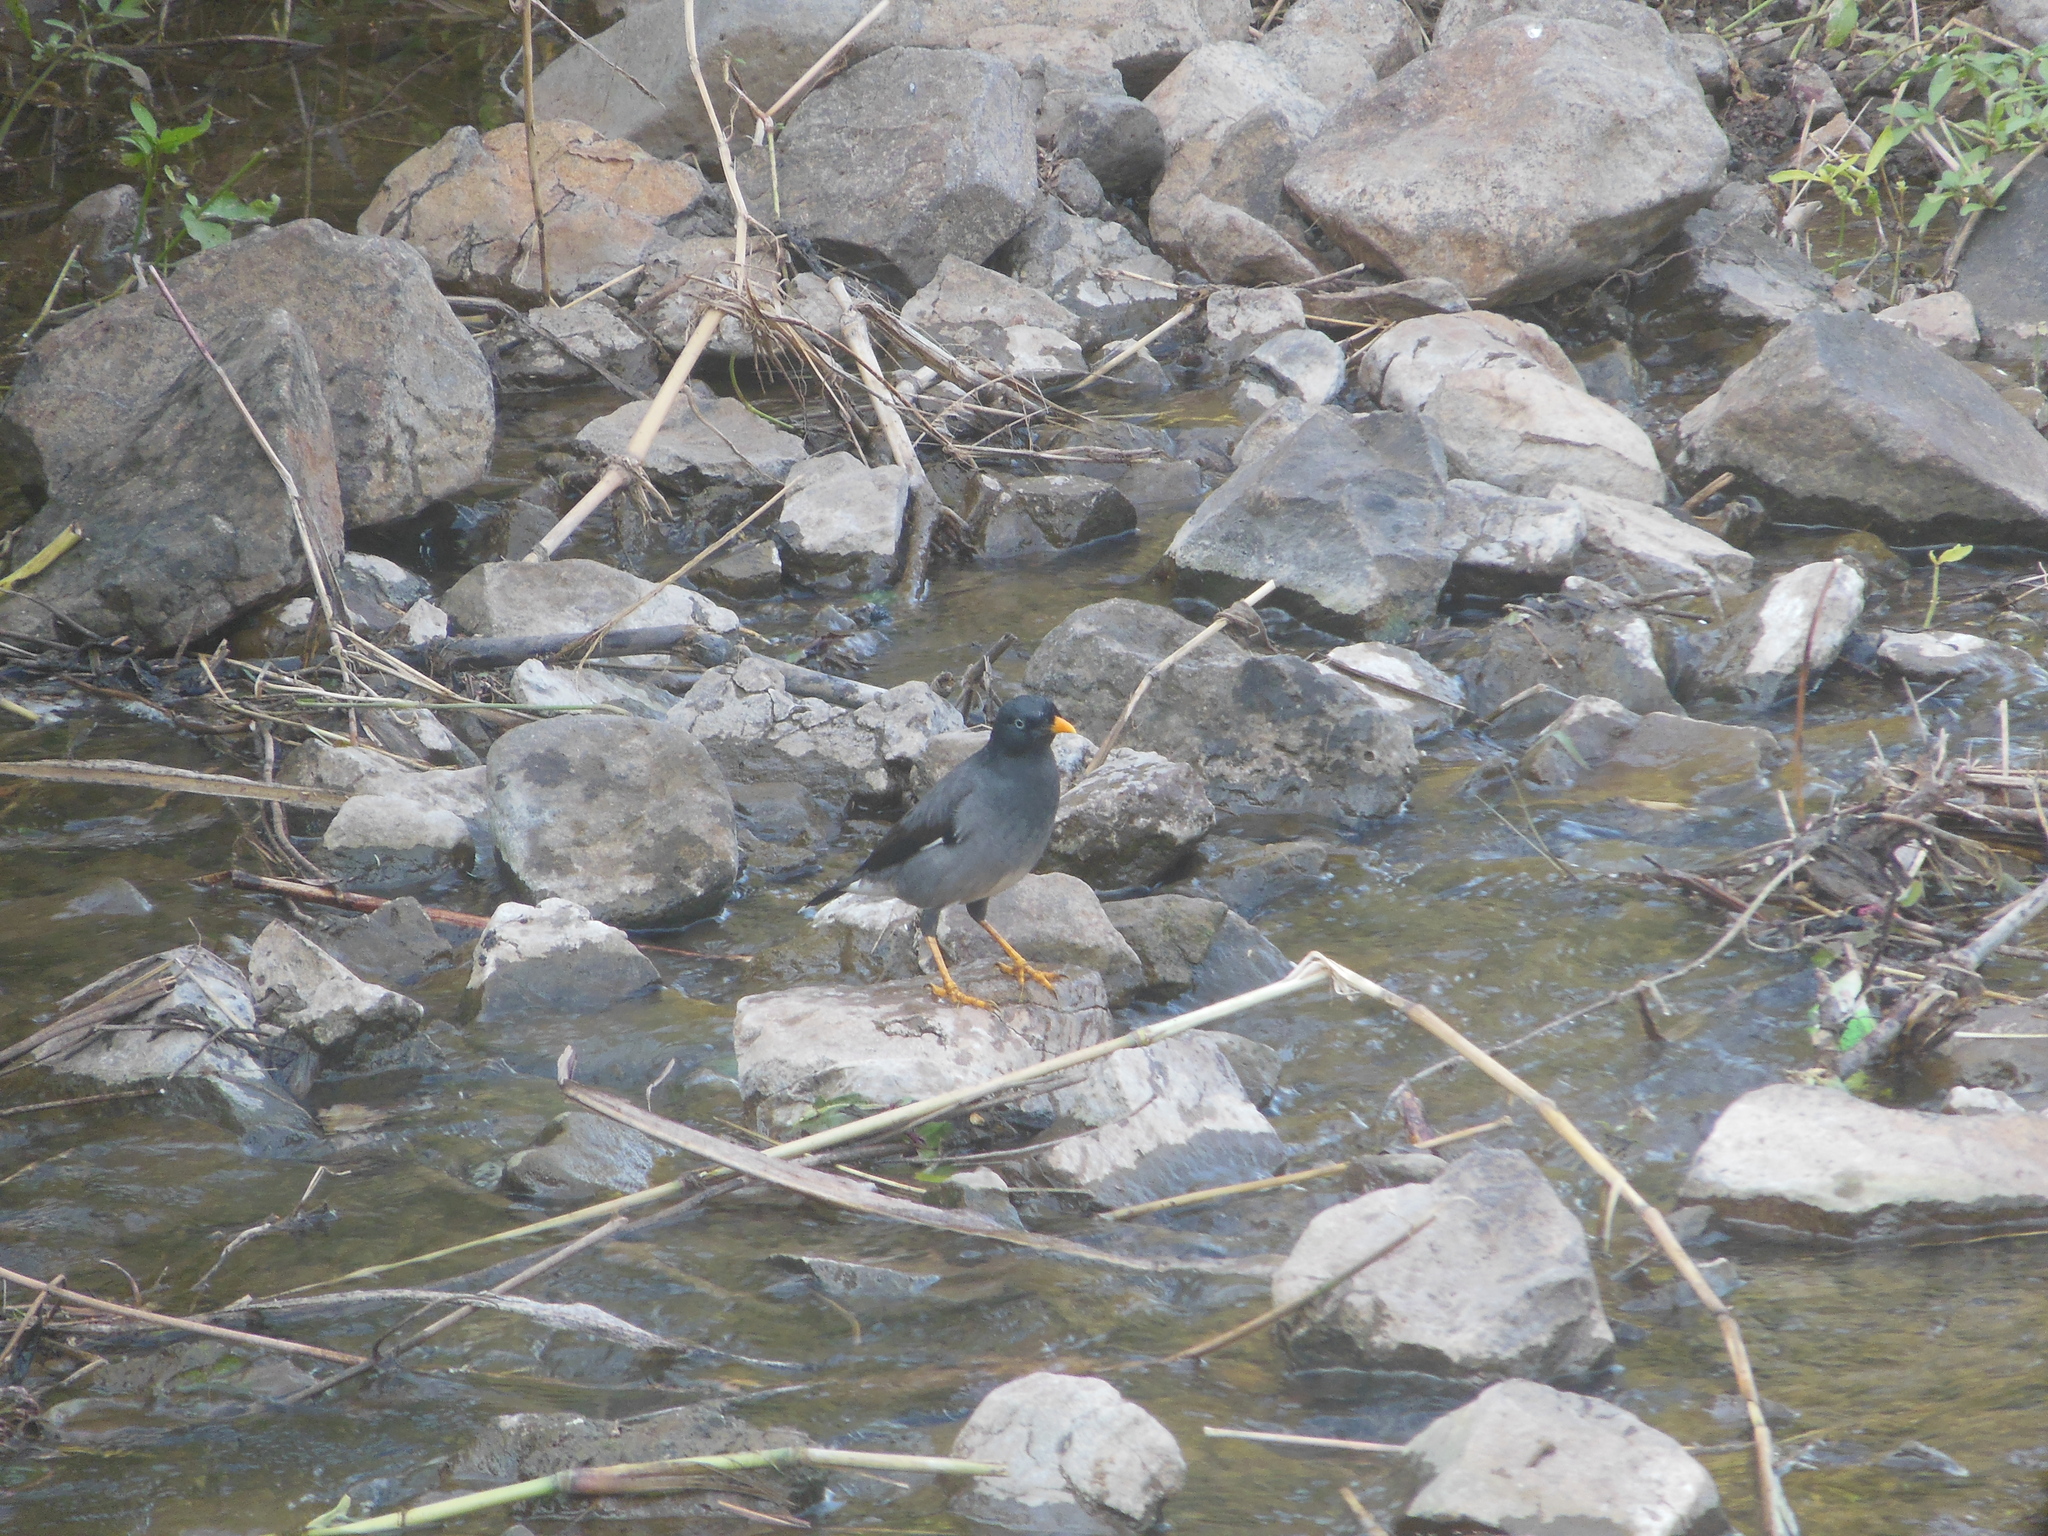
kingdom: Animalia
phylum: Chordata
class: Aves
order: Passeriformes
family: Sturnidae
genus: Acridotheres
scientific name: Acridotheres fuscus
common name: Jungle myna
